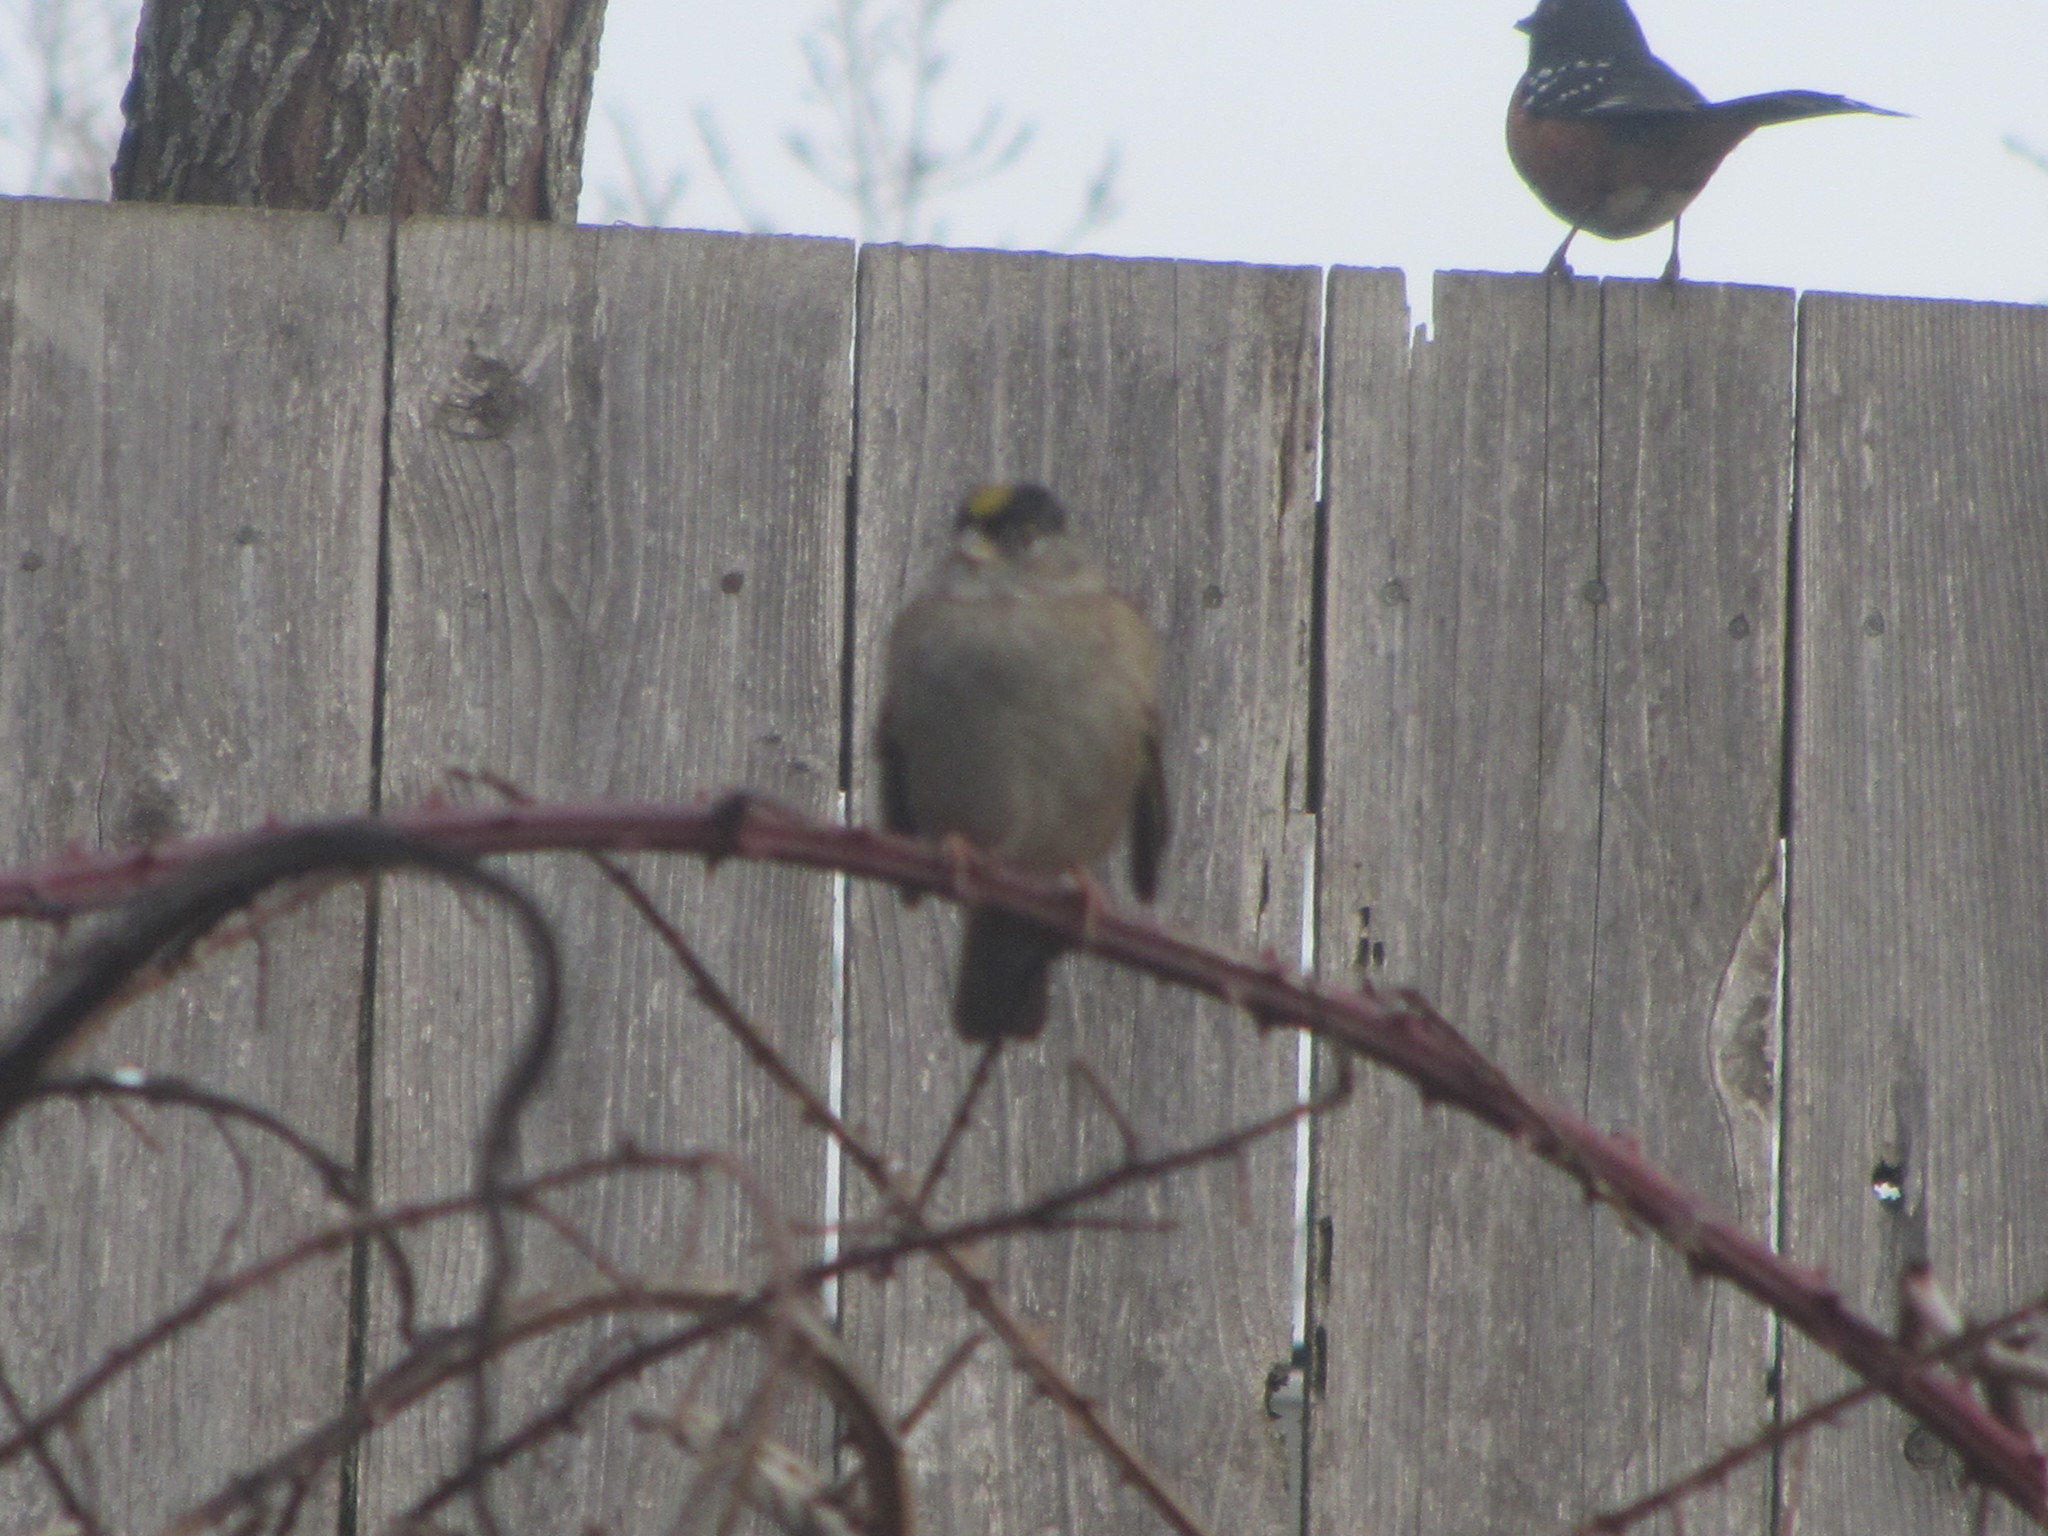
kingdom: Animalia
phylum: Chordata
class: Aves
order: Passeriformes
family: Passerellidae
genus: Zonotrichia
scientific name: Zonotrichia atricapilla
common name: Golden-crowned sparrow
